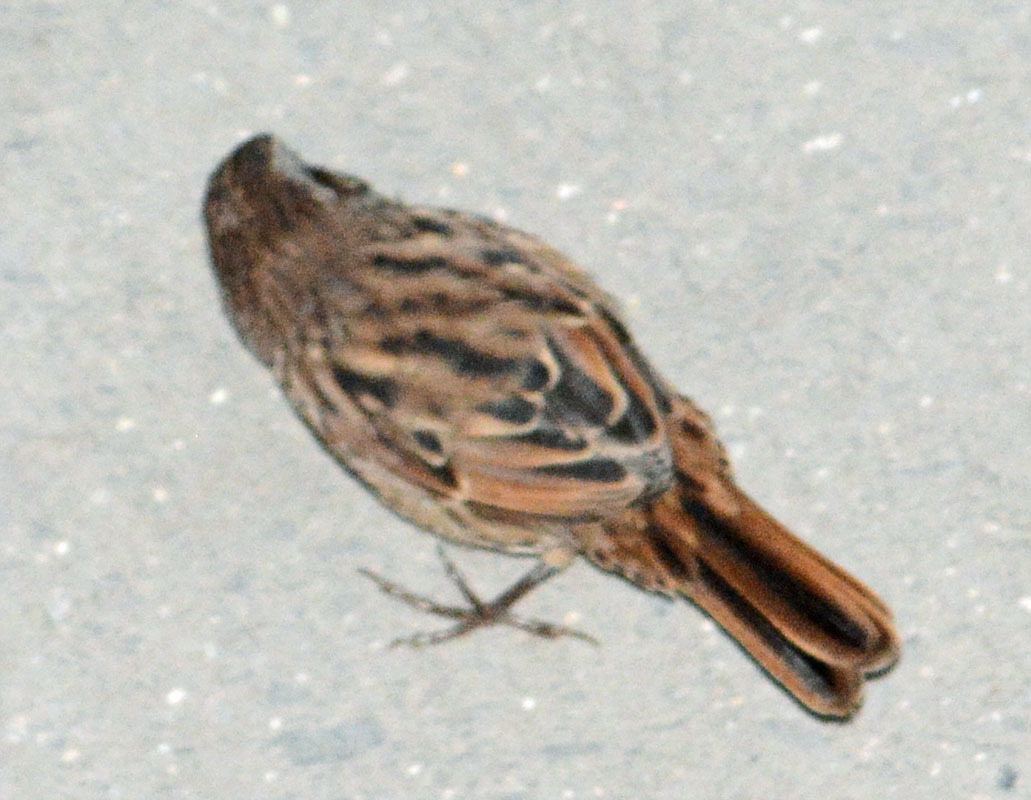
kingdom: Animalia
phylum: Chordata
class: Aves
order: Passeriformes
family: Passerellidae
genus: Melospiza
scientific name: Melospiza melodia
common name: Song sparrow
